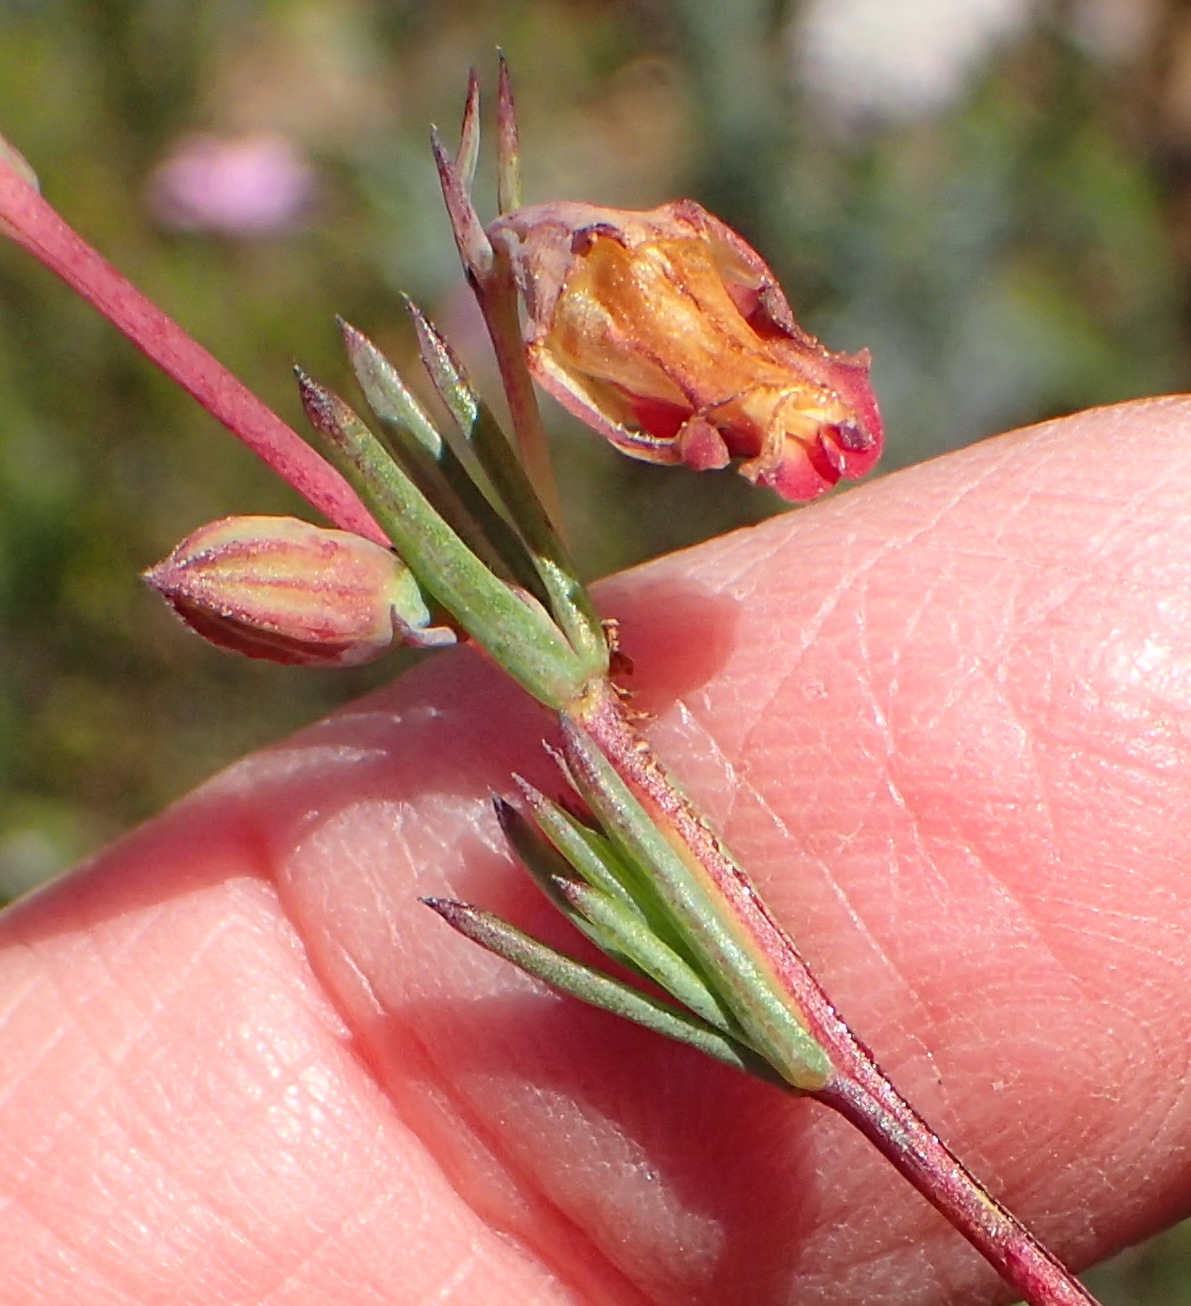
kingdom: Plantae
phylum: Tracheophyta
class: Magnoliopsida
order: Malvales
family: Malvaceae
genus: Hermannia
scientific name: Hermannia filifolia
